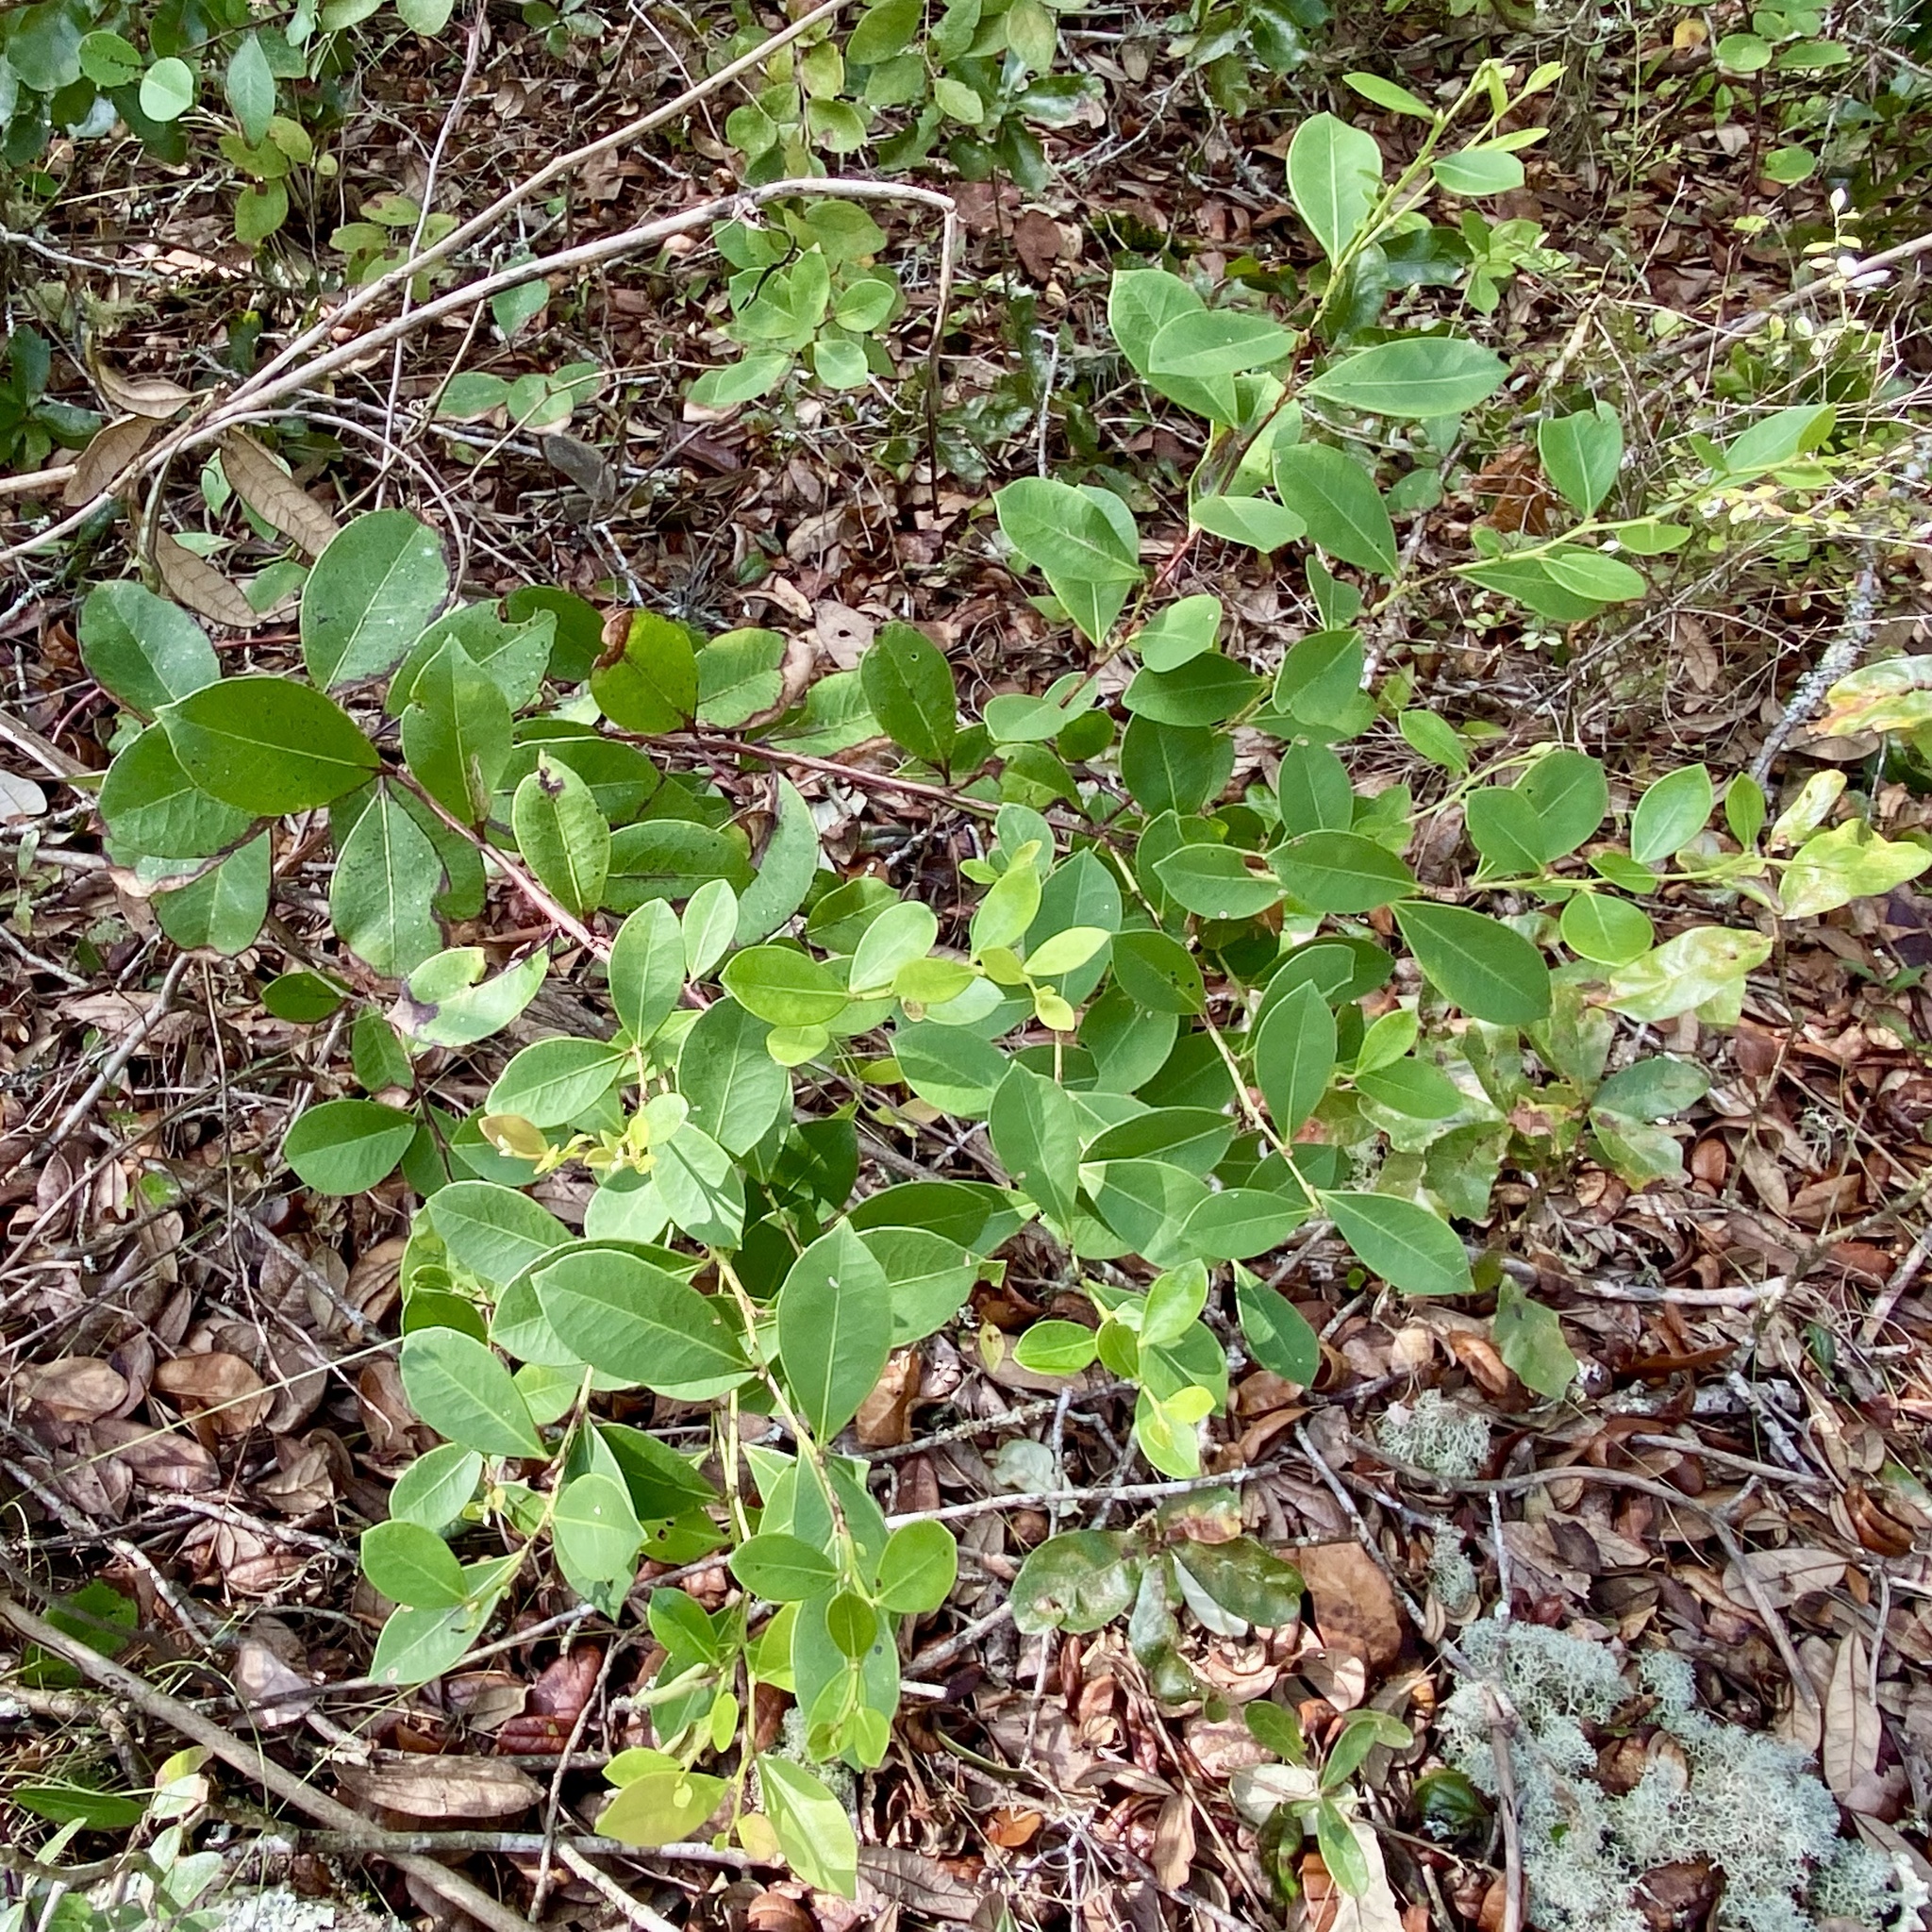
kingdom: Plantae
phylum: Tracheophyta
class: Magnoliopsida
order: Ericales
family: Ericaceae
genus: Lyonia
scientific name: Lyonia lucida
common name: Fetterbush
